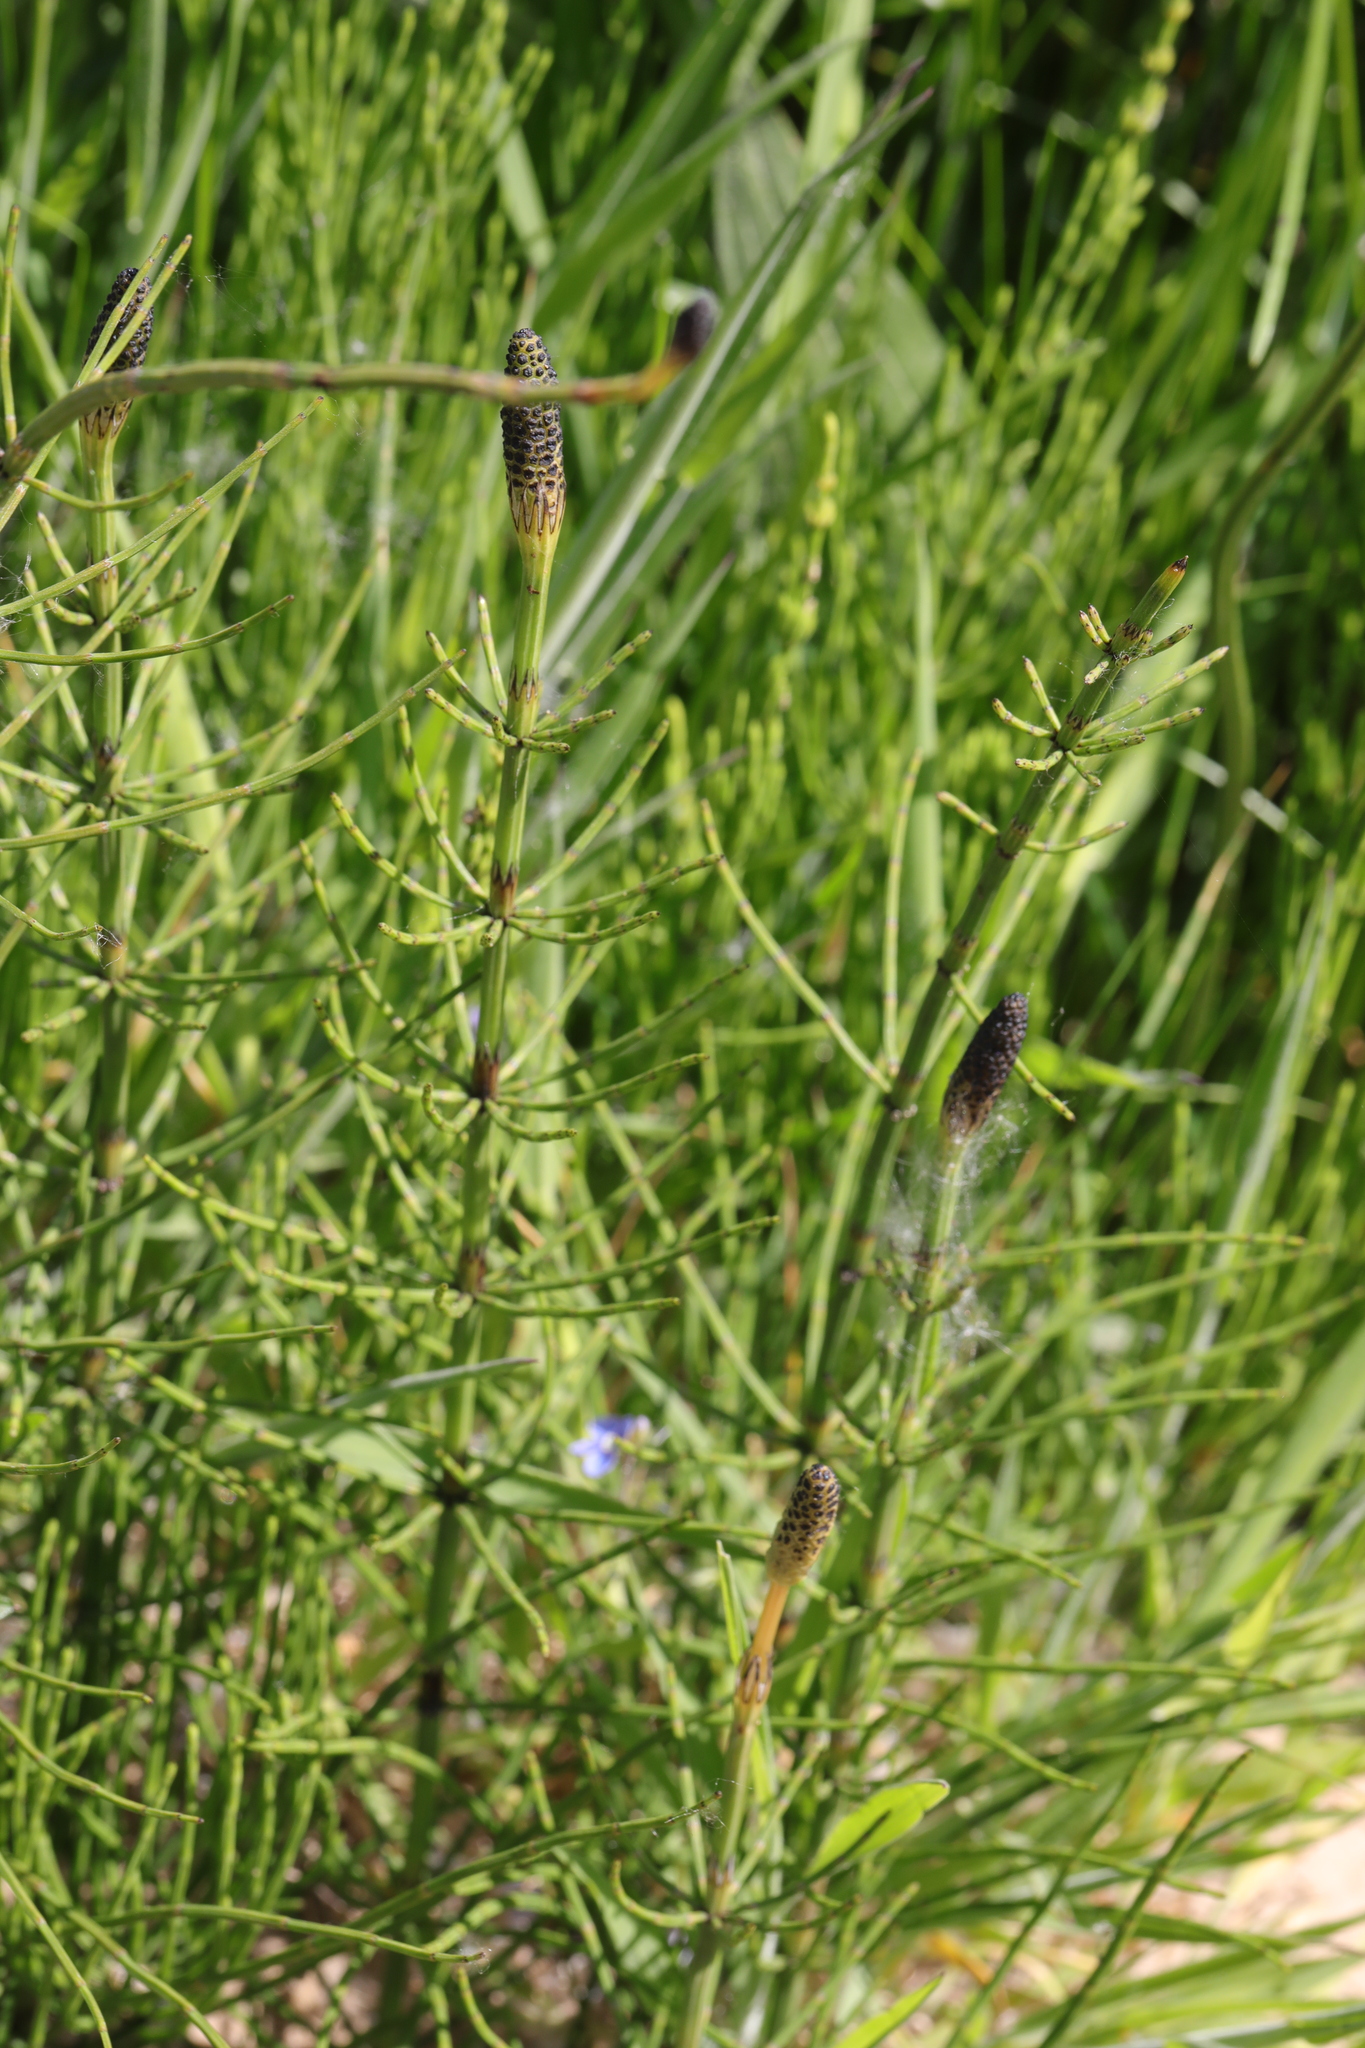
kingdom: Plantae
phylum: Tracheophyta
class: Polypodiopsida
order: Equisetales
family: Equisetaceae
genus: Equisetum
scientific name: Equisetum palustre
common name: Marsh horsetail
